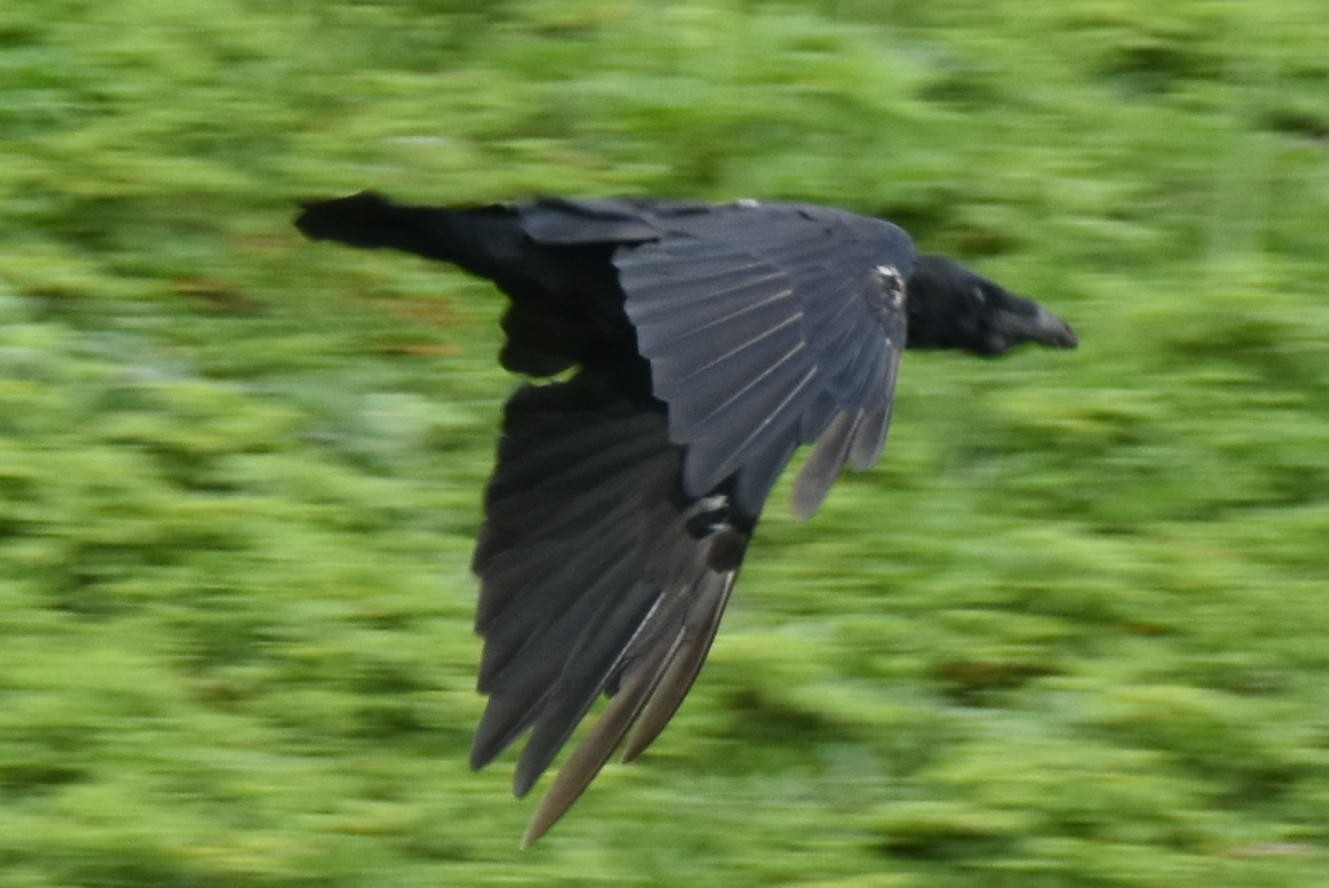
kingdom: Animalia
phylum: Chordata
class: Aves
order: Passeriformes
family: Corvidae
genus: Corvus
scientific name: Corvus corax
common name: Common raven
